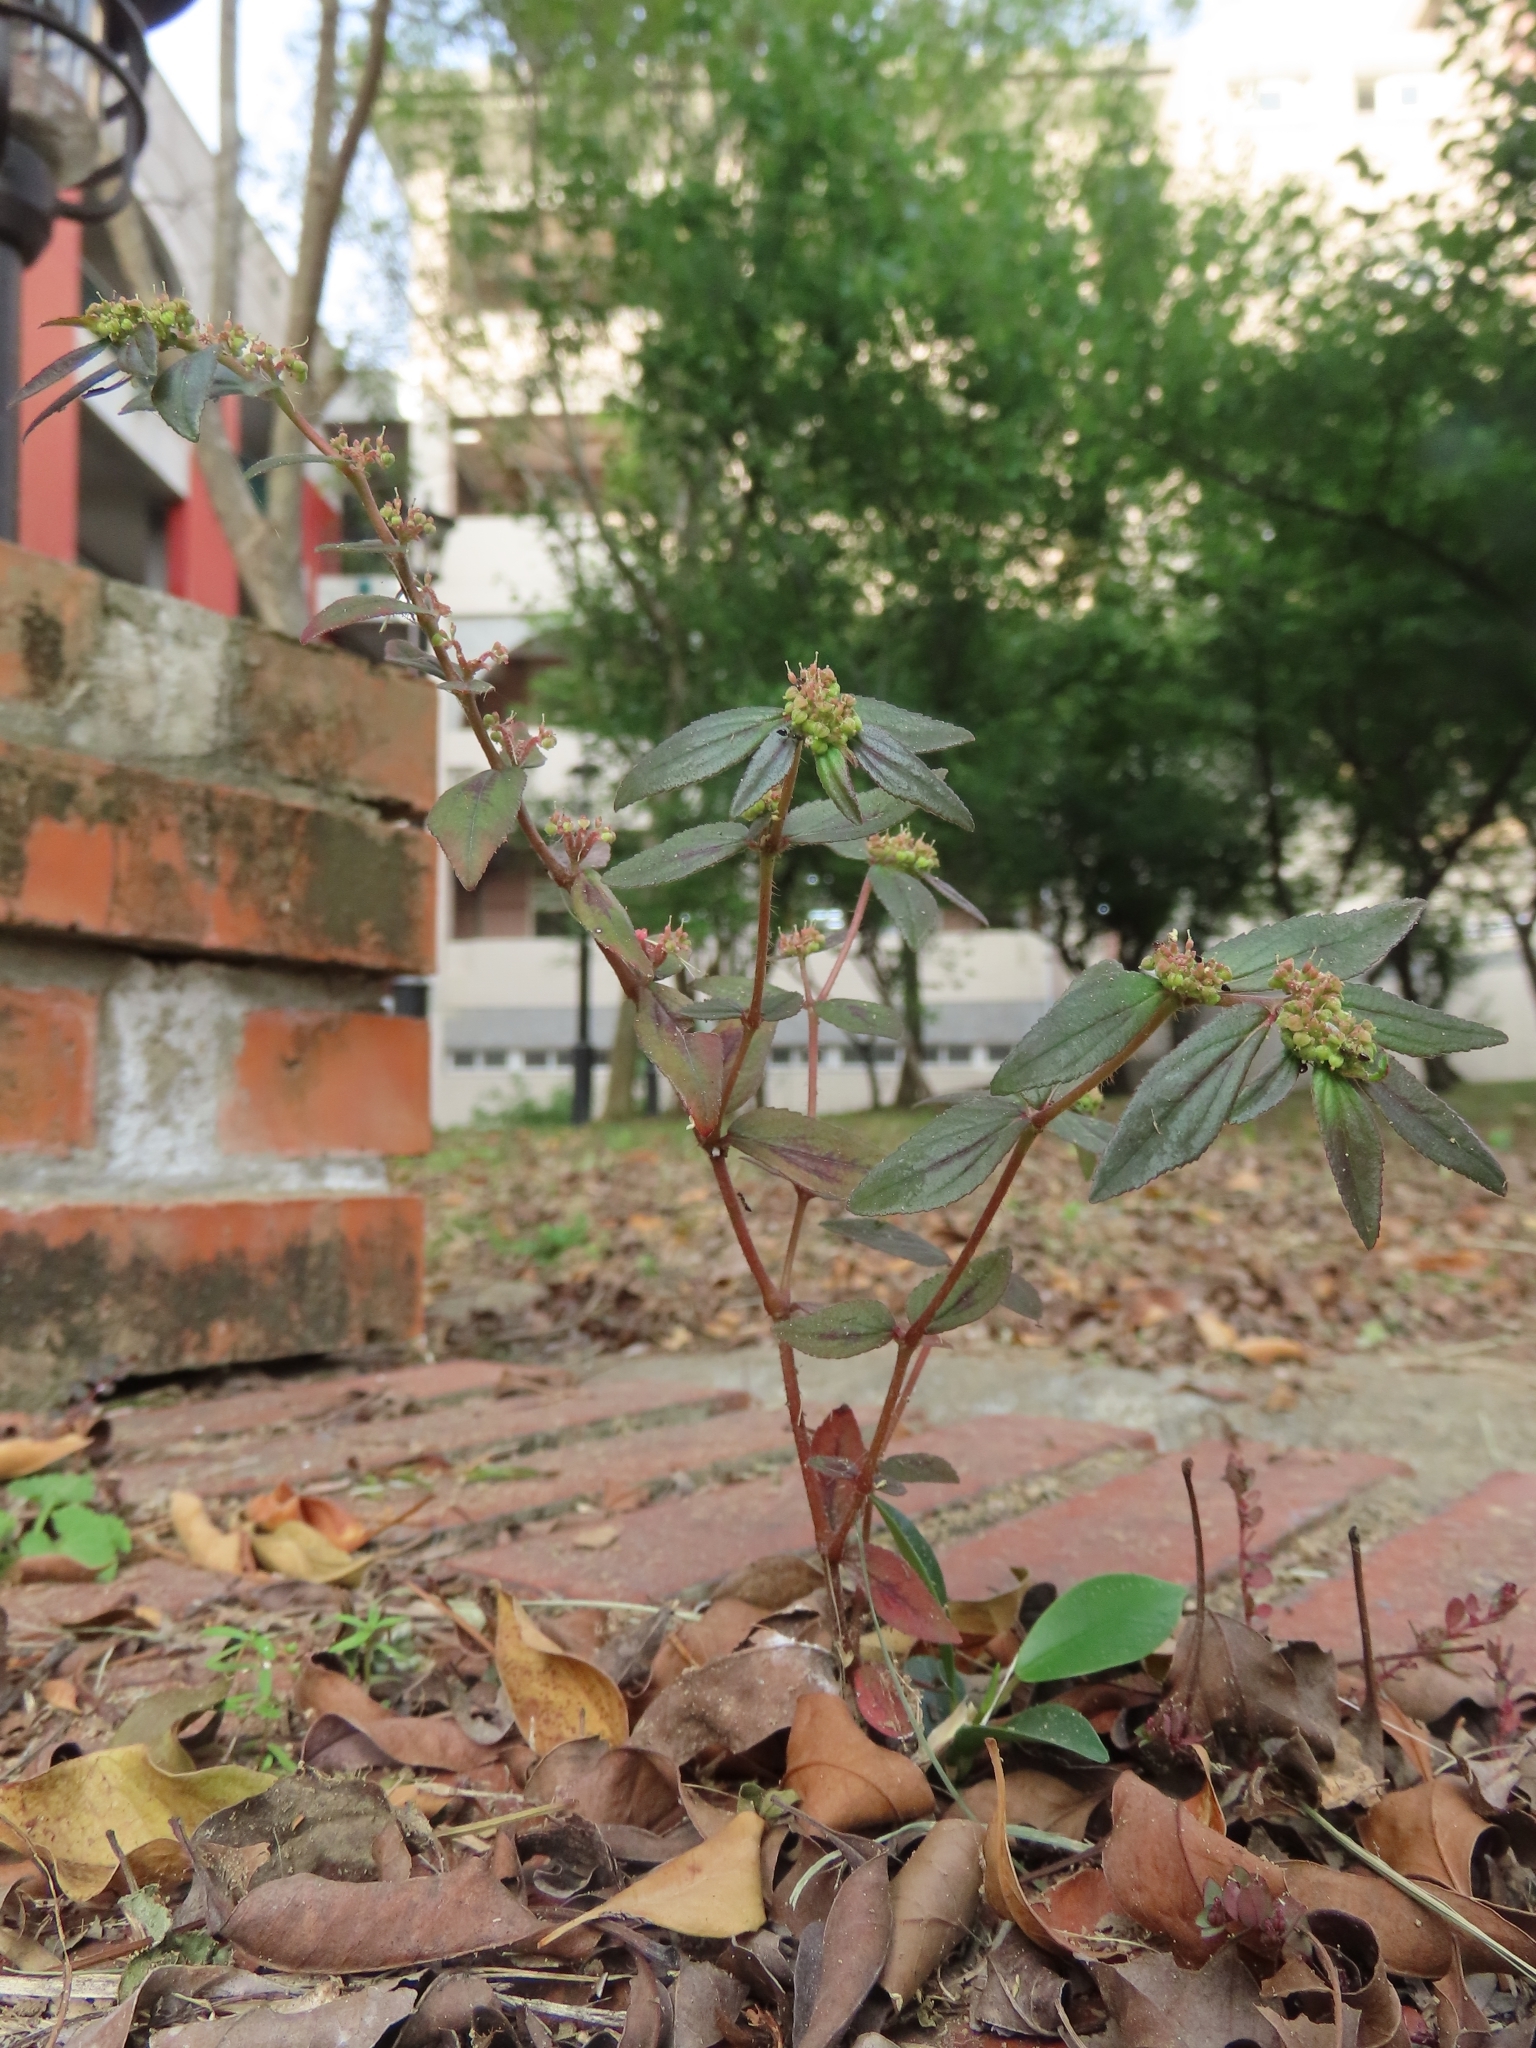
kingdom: Plantae
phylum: Tracheophyta
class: Magnoliopsida
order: Malpighiales
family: Euphorbiaceae
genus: Euphorbia
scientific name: Euphorbia hirta
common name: Pillpod sandmat
